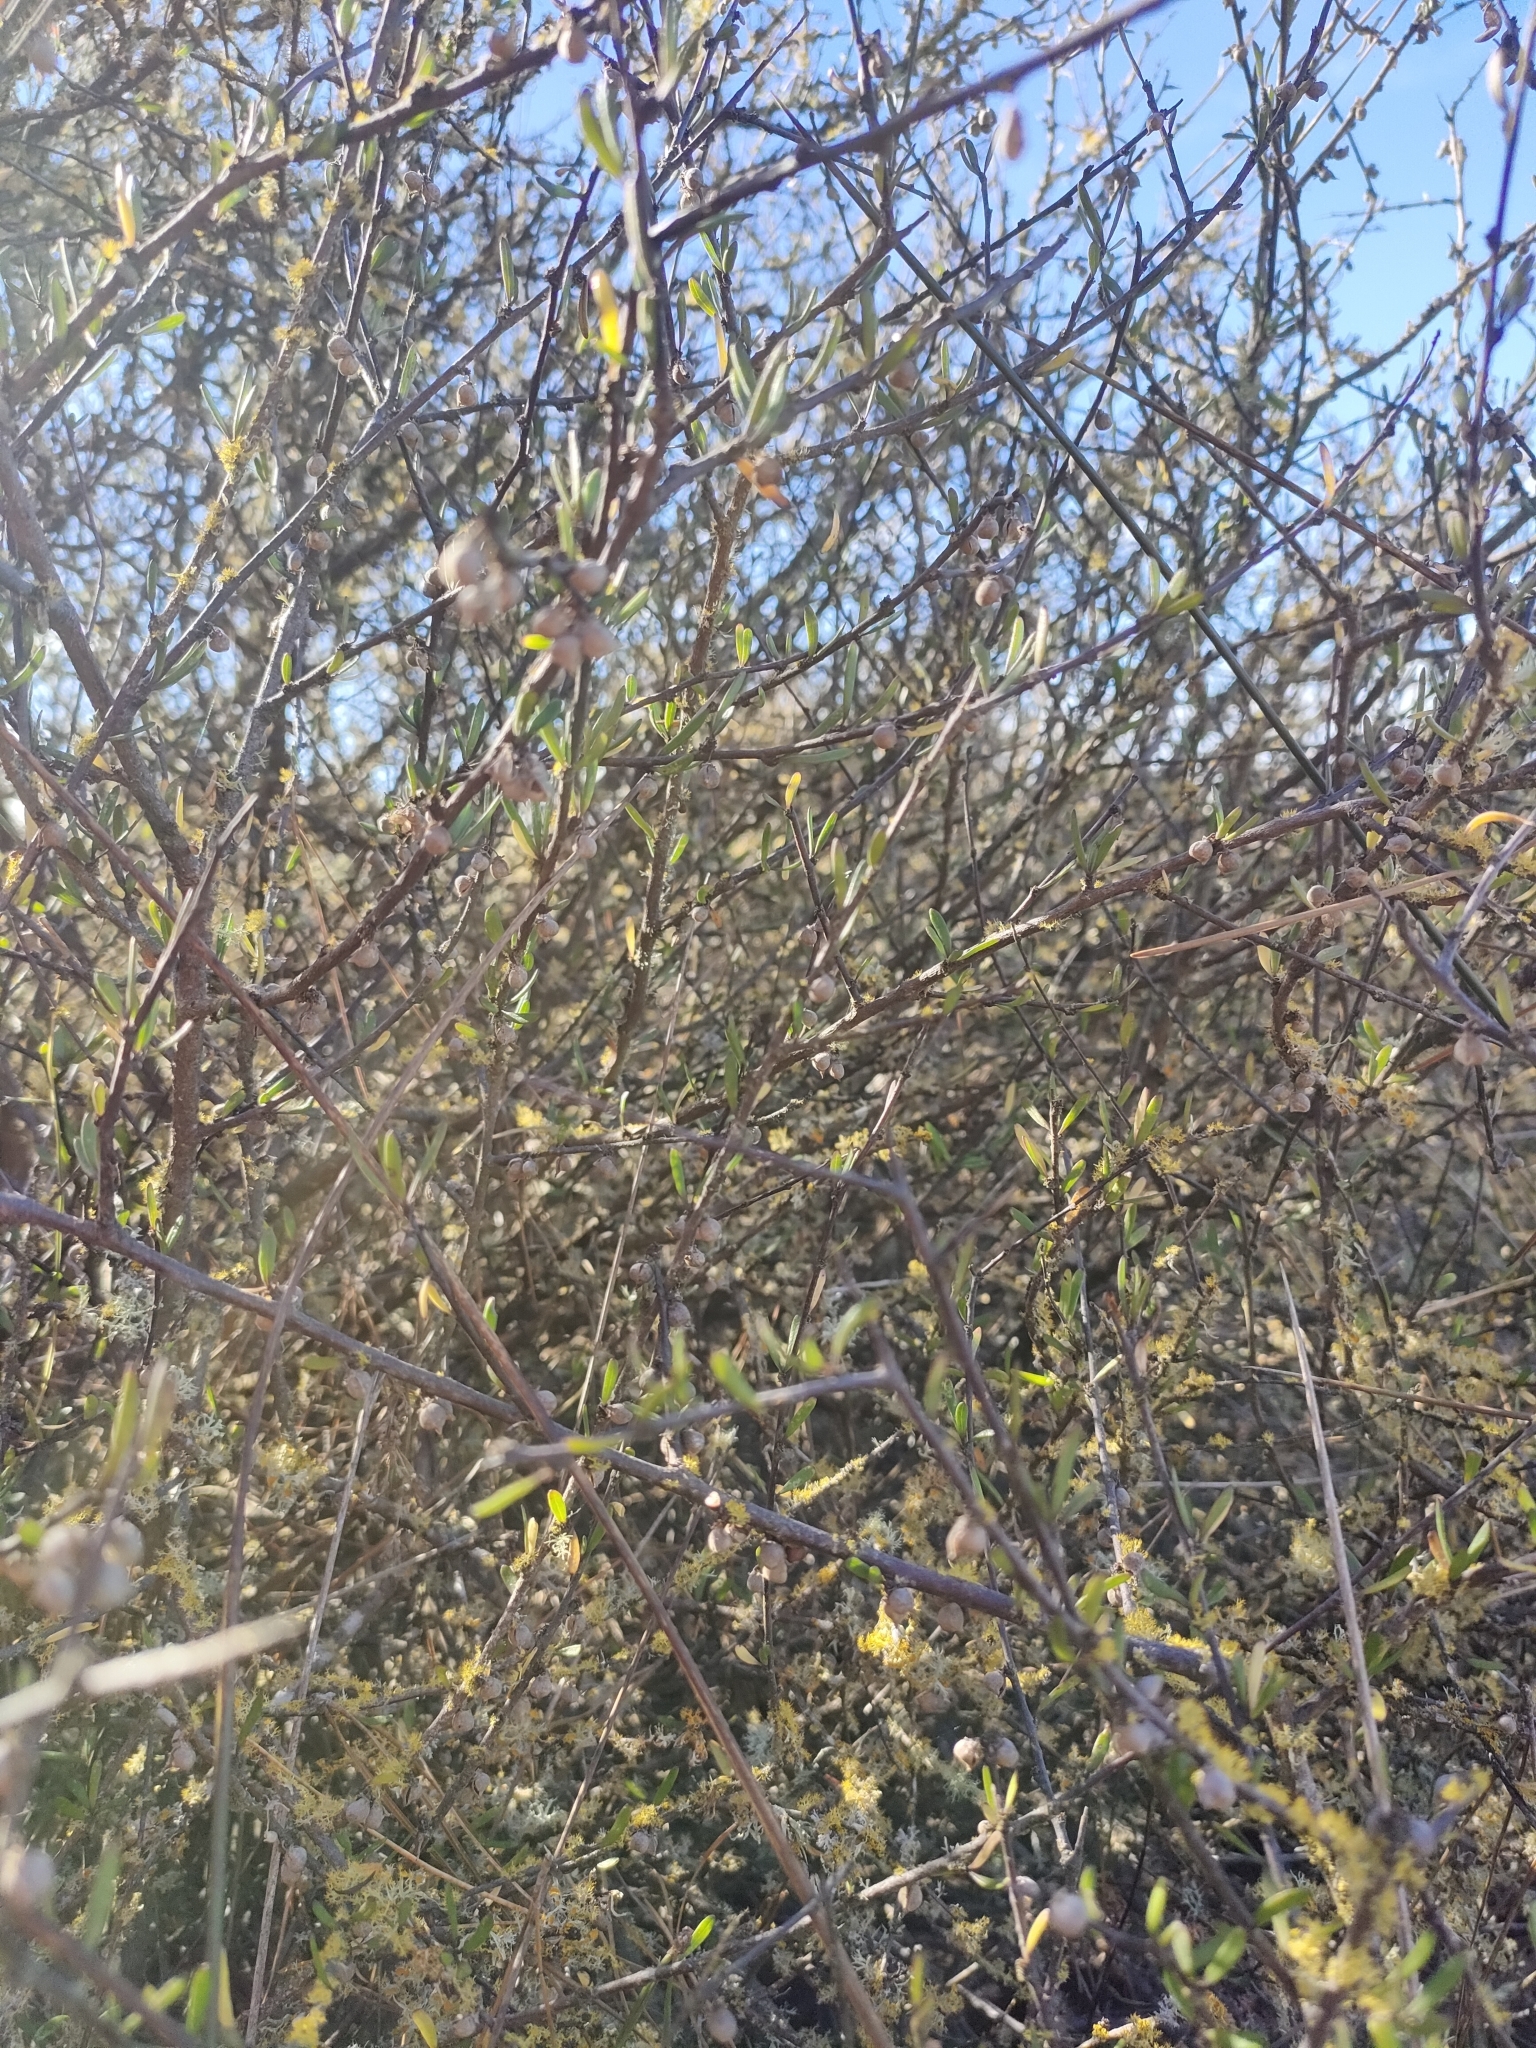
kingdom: Plantae
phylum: Tracheophyta
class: Magnoliopsida
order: Malvales
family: Malvaceae
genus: Plagianthus
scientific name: Plagianthus divaricatus
